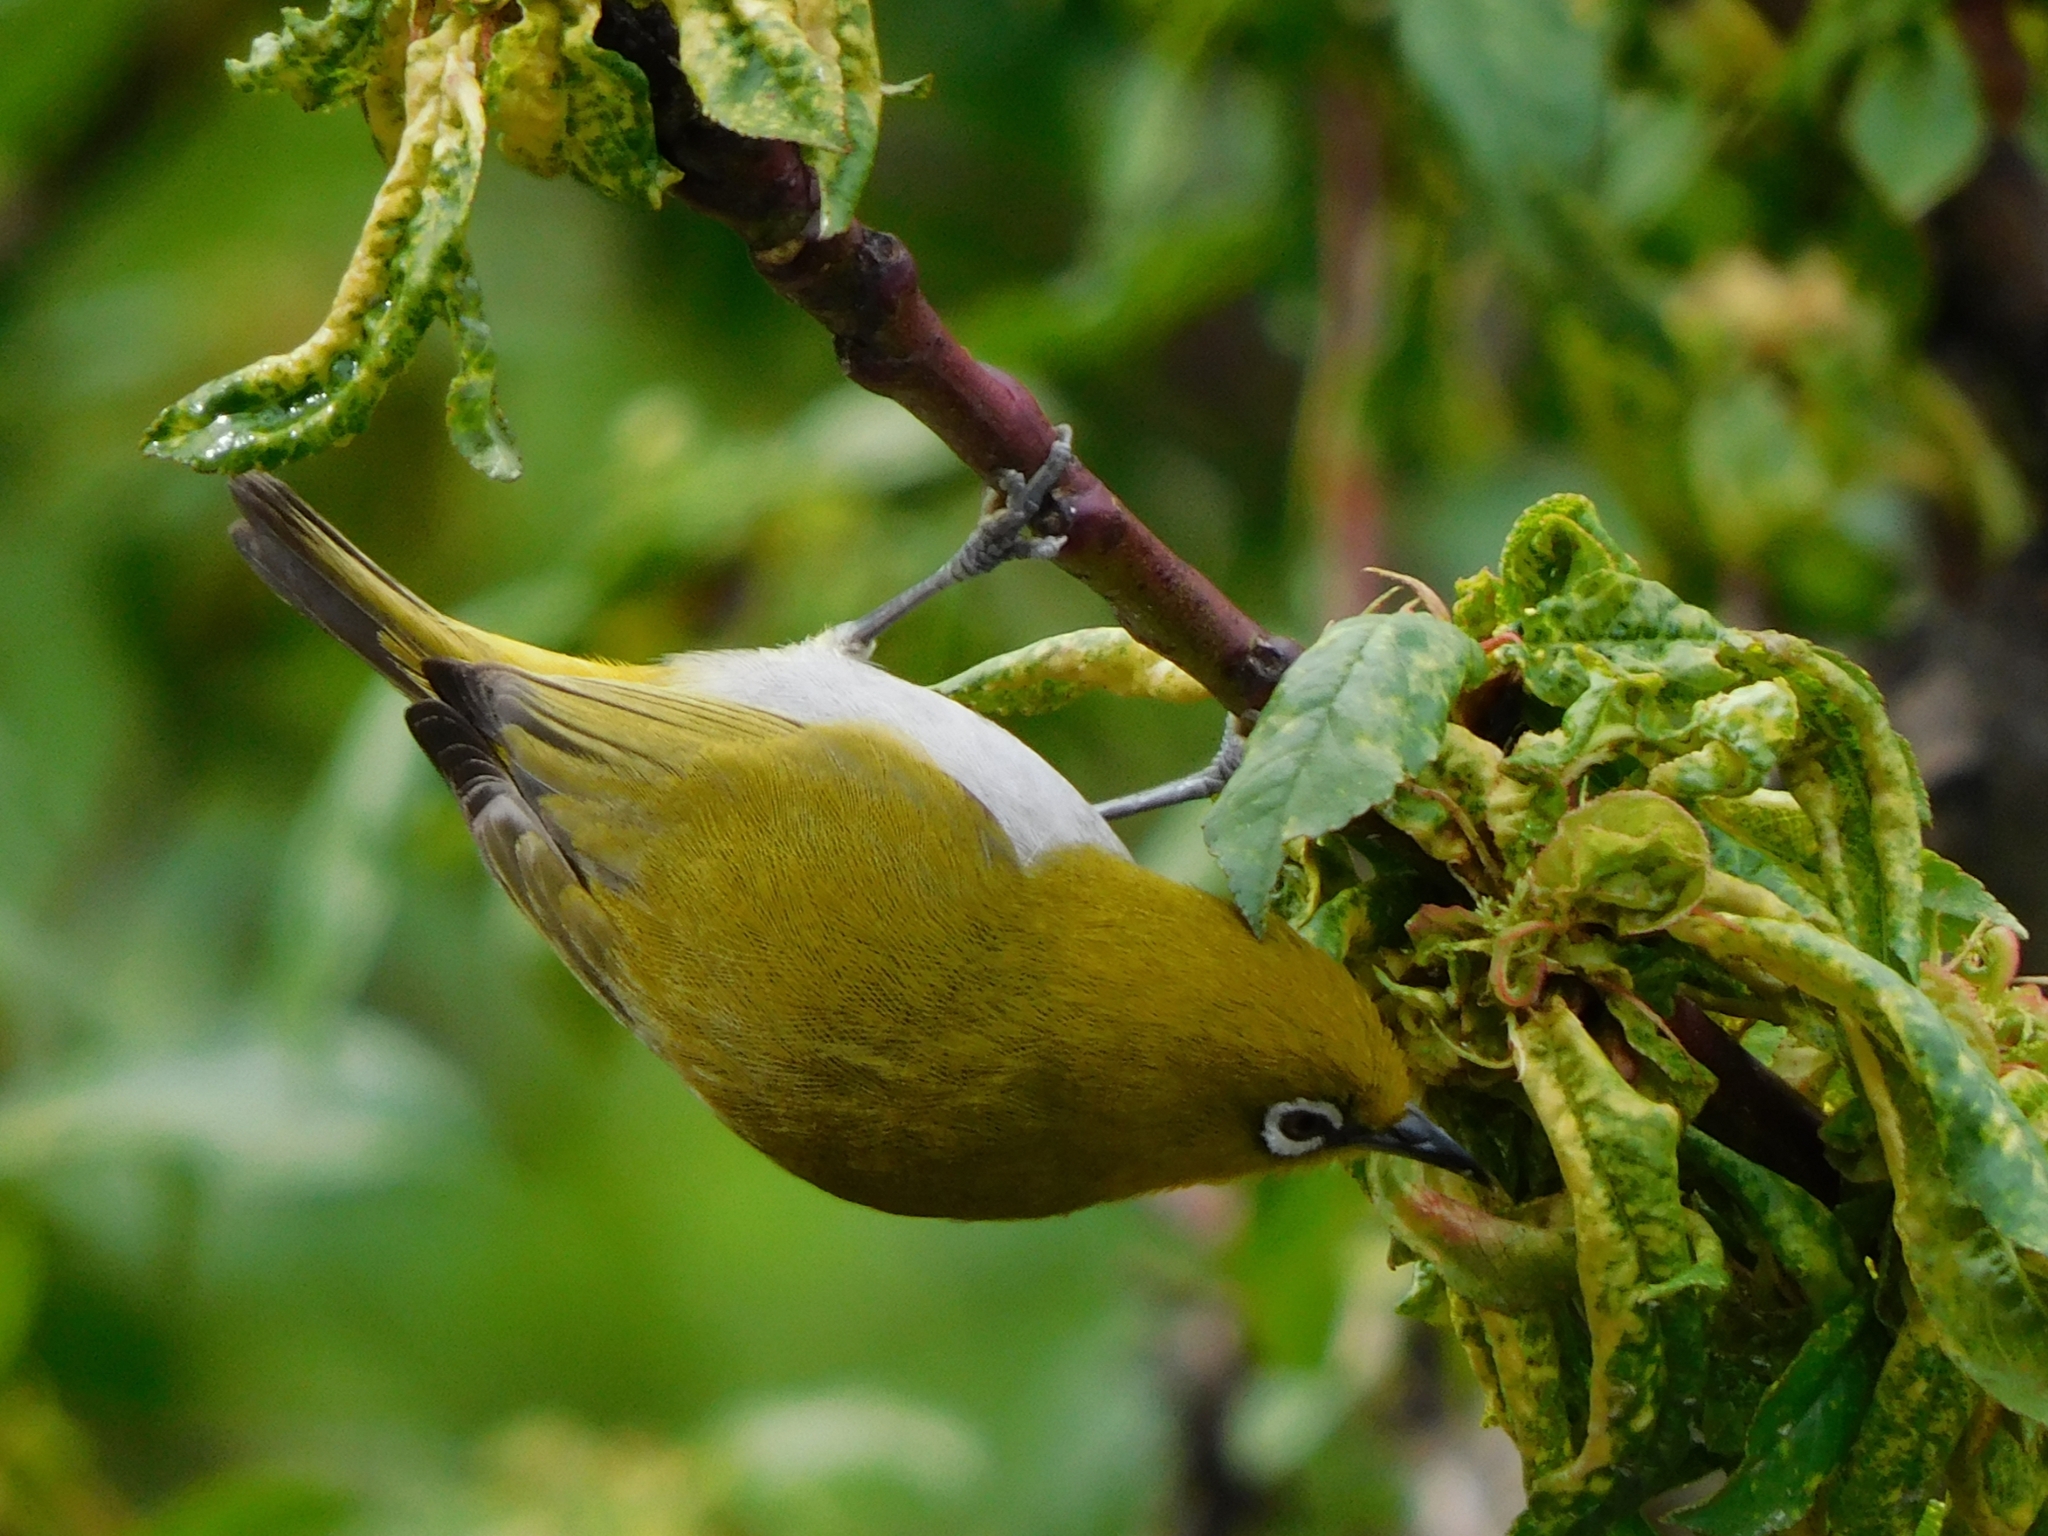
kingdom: Animalia
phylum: Chordata
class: Aves
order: Passeriformes
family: Zosteropidae
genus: Zosterops
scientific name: Zosterops palpebrosus
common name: Oriental white-eye
